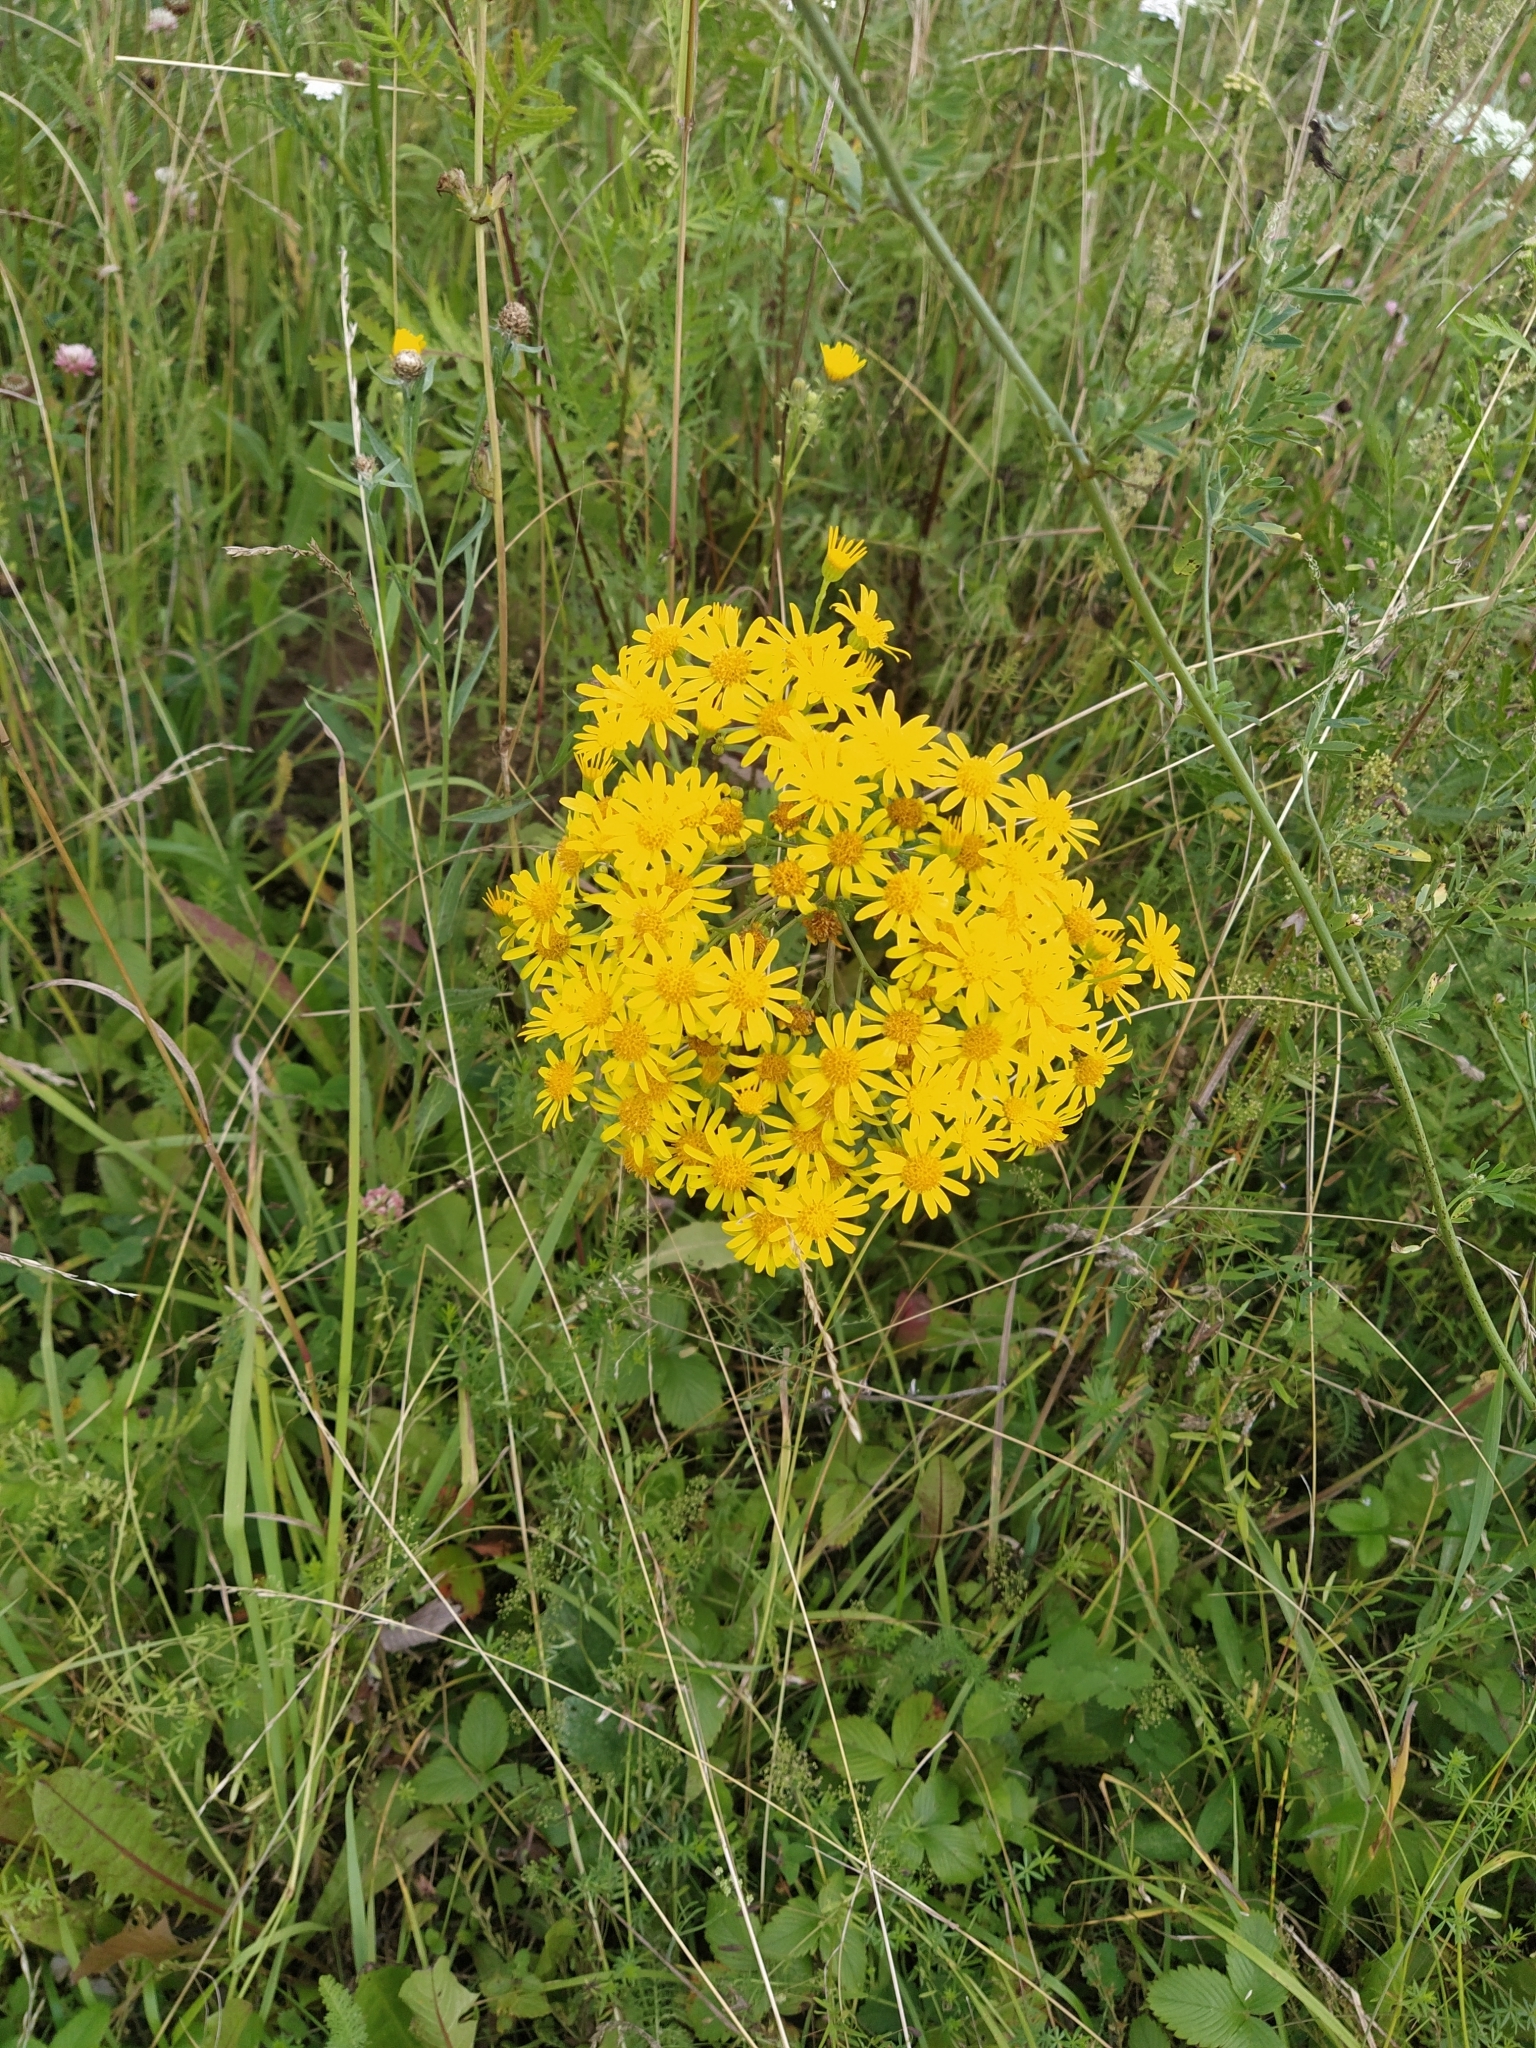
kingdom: Plantae
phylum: Tracheophyta
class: Magnoliopsida
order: Asterales
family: Asteraceae
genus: Jacobaea
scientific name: Jacobaea vulgaris
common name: Stinking willie
